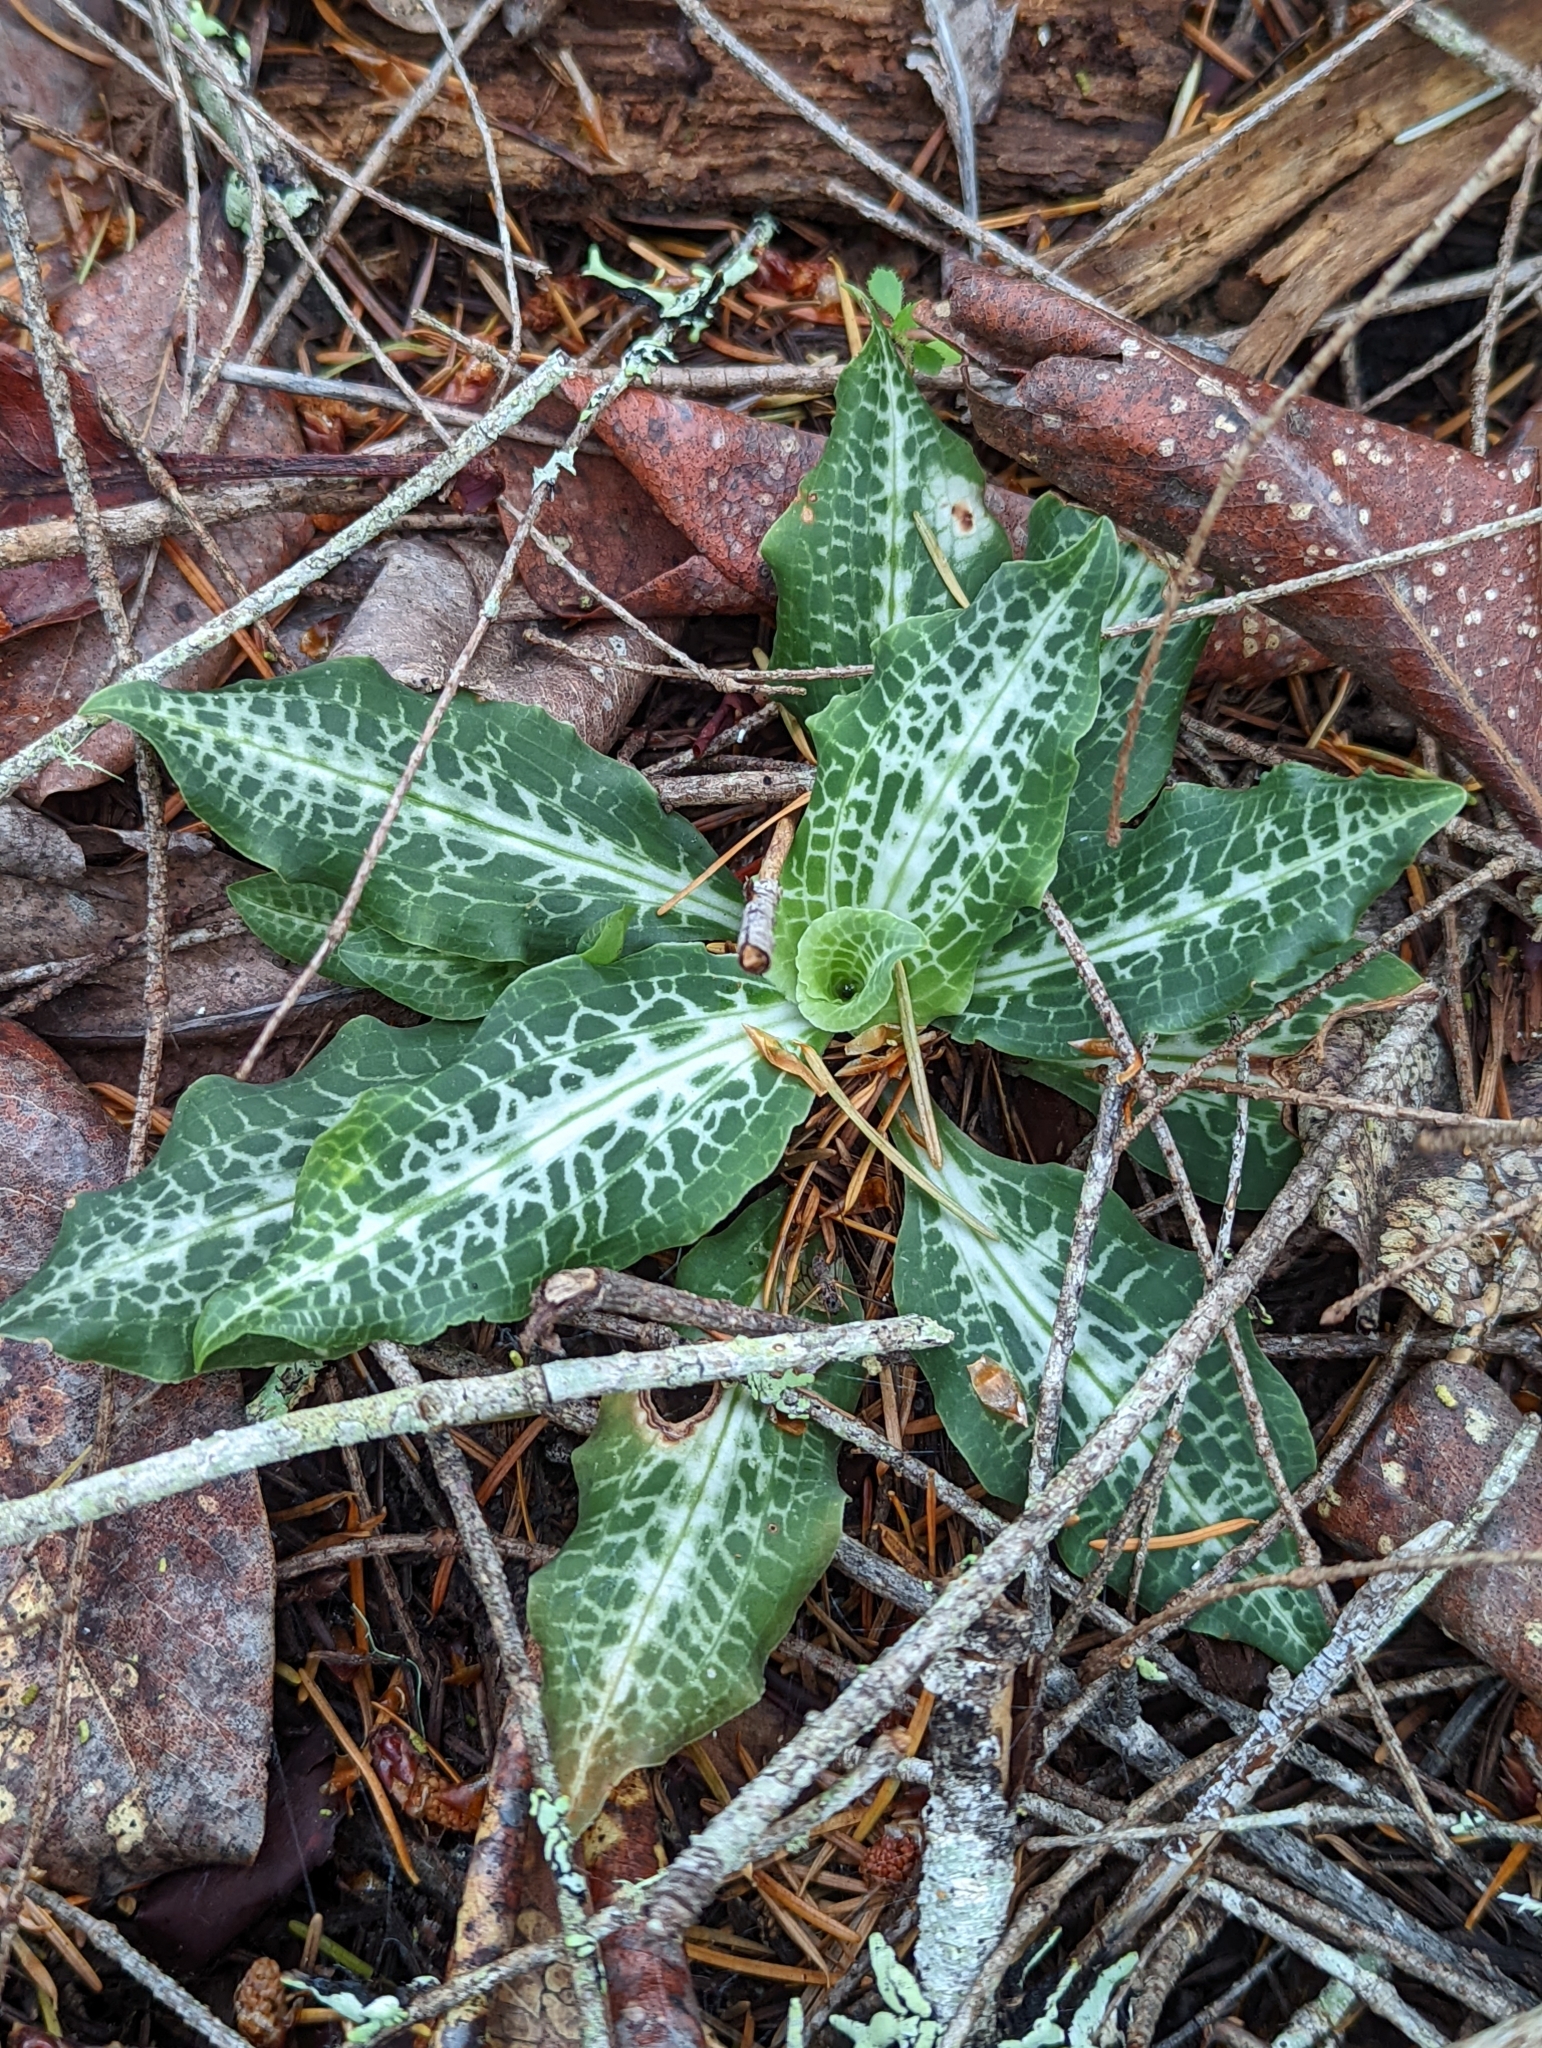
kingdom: Plantae
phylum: Tracheophyta
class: Liliopsida
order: Asparagales
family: Orchidaceae
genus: Goodyera
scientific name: Goodyera oblongifolia
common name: Giant rattlesnake-plantain
